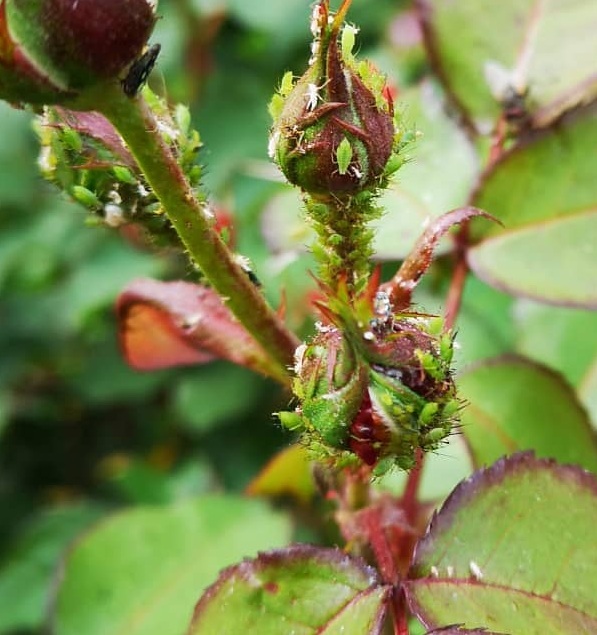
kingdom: Animalia
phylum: Arthropoda
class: Insecta
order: Hemiptera
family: Aphididae
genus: Macrosiphum
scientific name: Macrosiphum rosae
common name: Rose aphid
